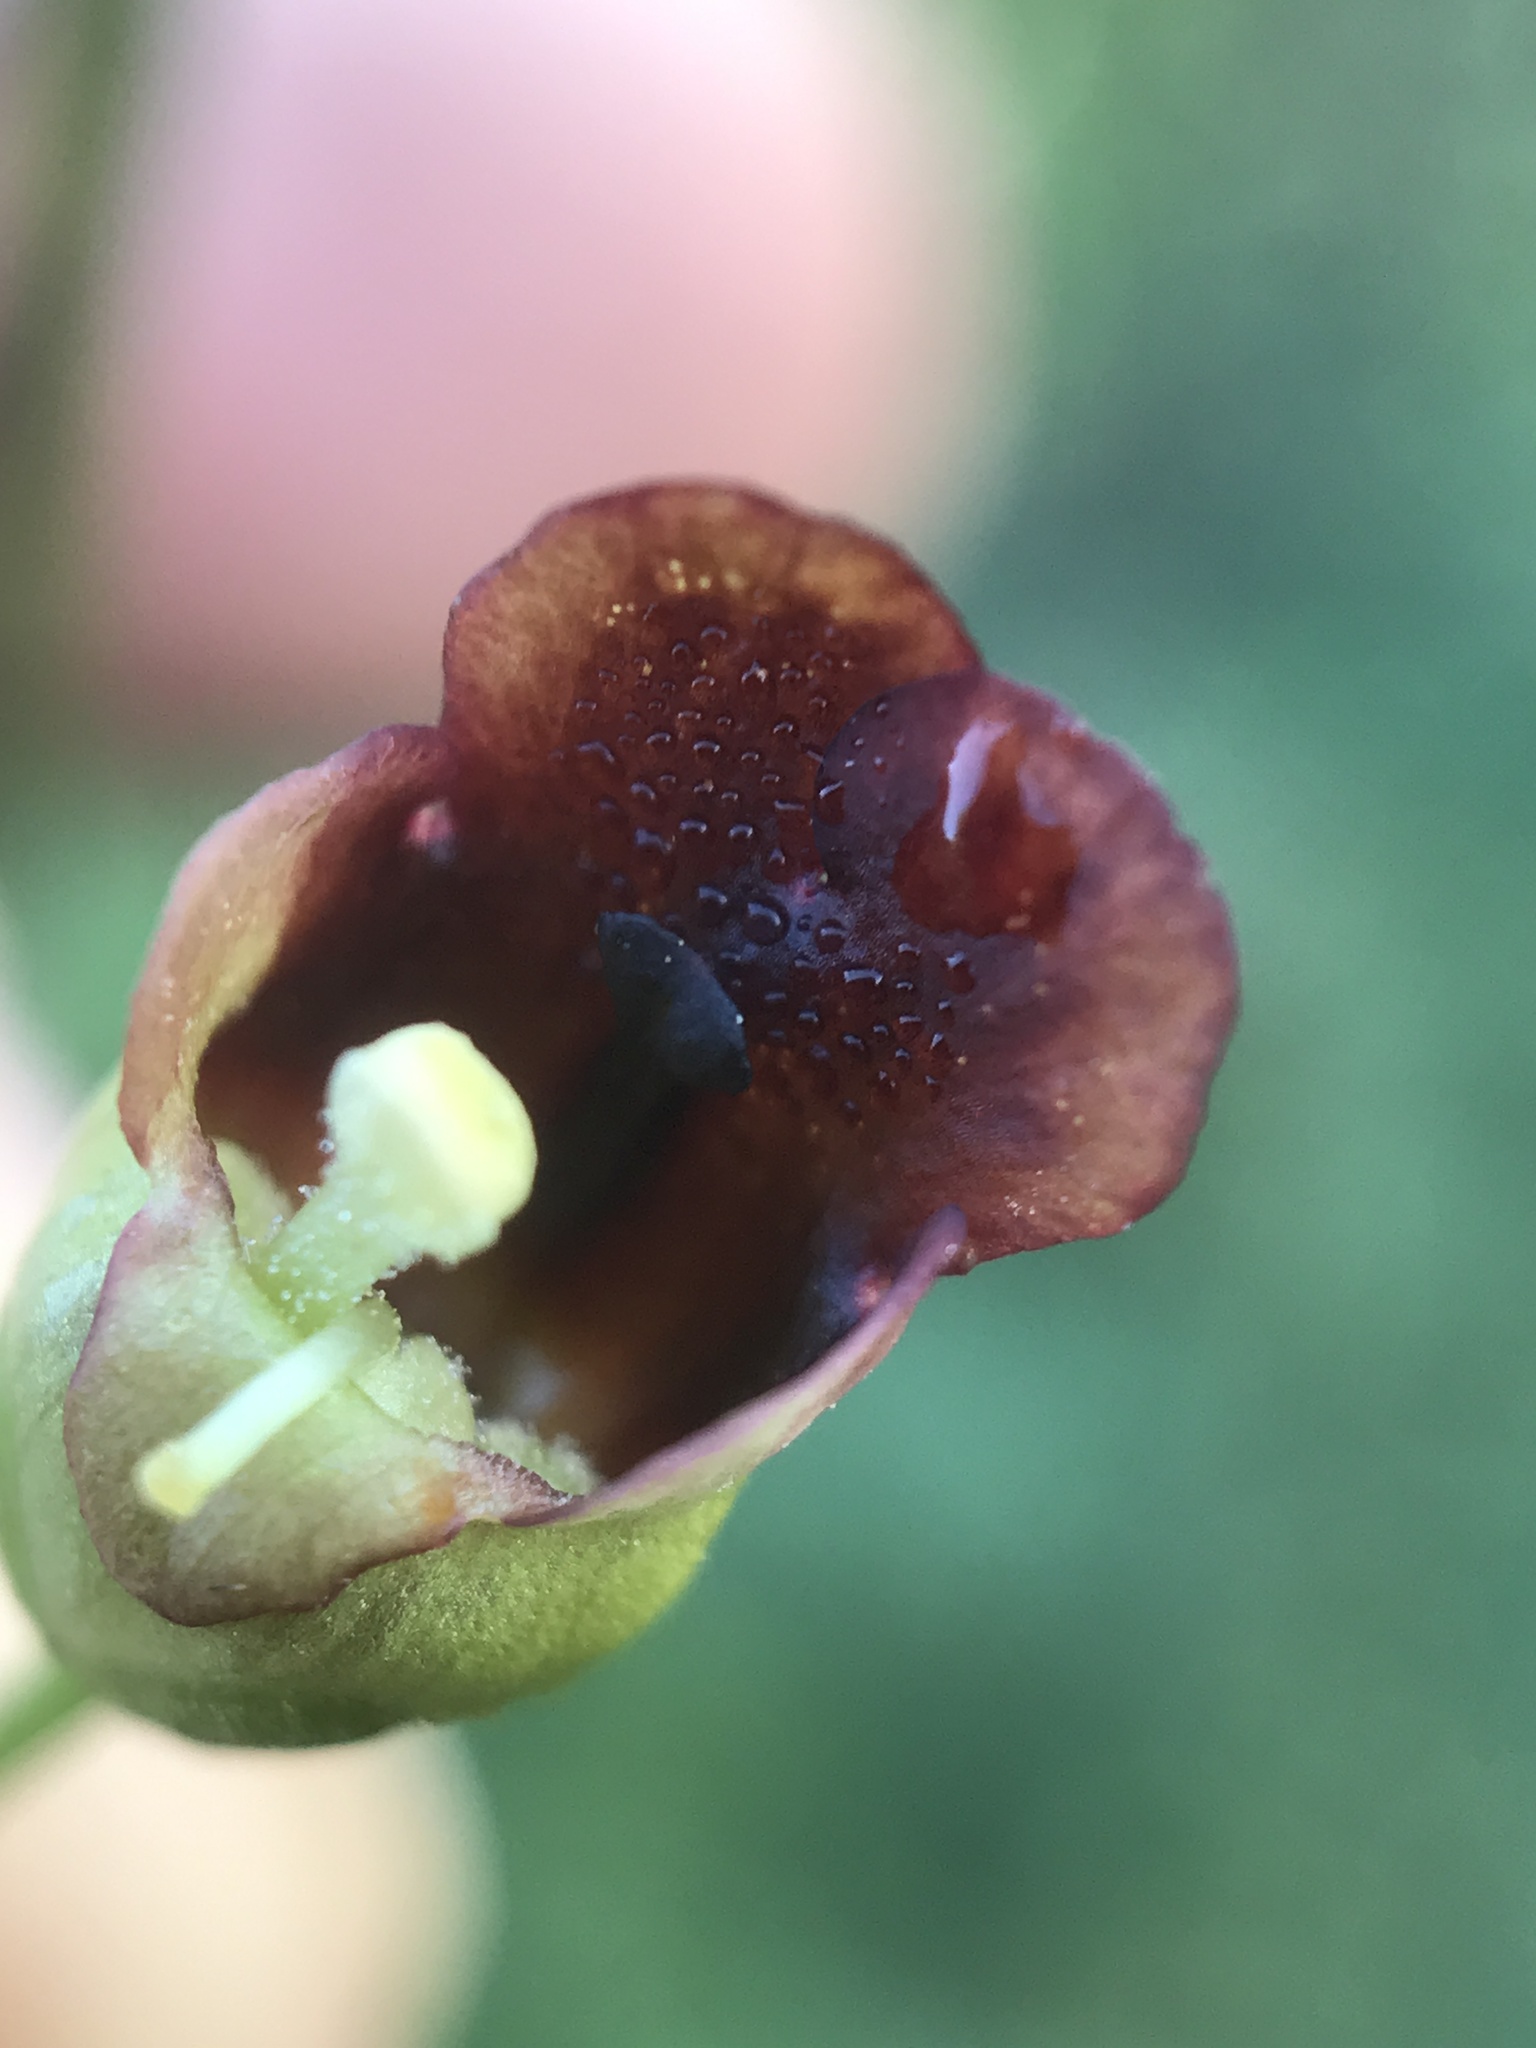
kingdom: Plantae
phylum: Tracheophyta
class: Magnoliopsida
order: Lamiales
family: Scrophulariaceae
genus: Scrophularia
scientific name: Scrophularia marilandica
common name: Eastern figwort
